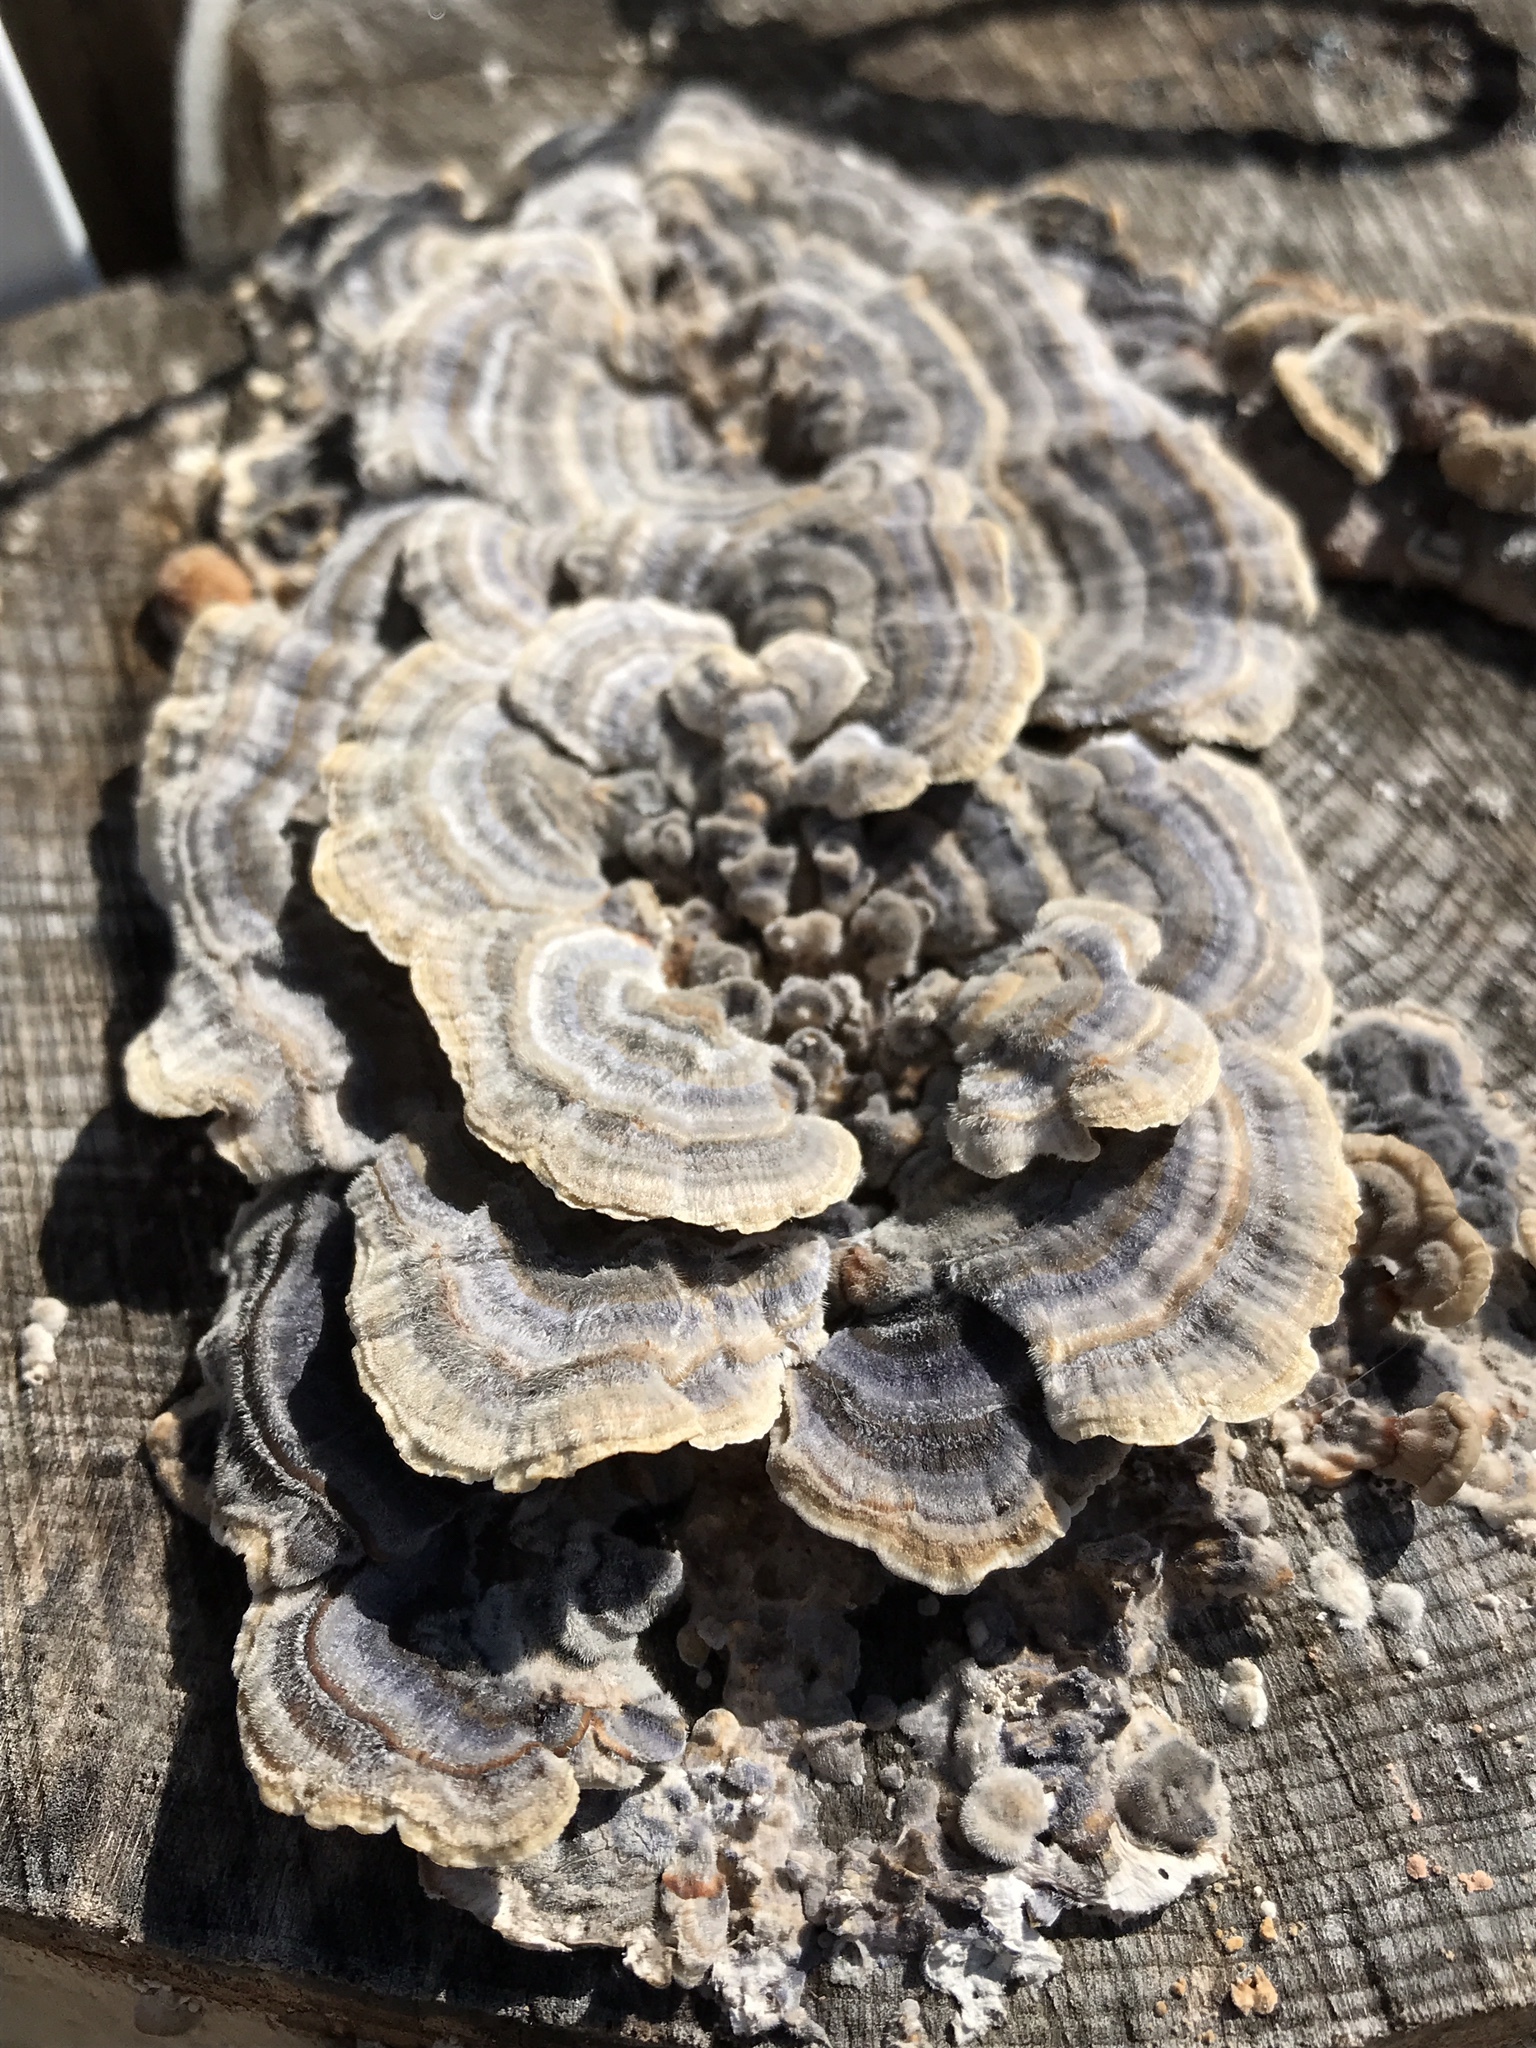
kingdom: Fungi
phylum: Basidiomycota
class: Agaricomycetes
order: Polyporales
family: Polyporaceae
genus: Trametes
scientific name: Trametes versicolor
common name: Turkeytail
